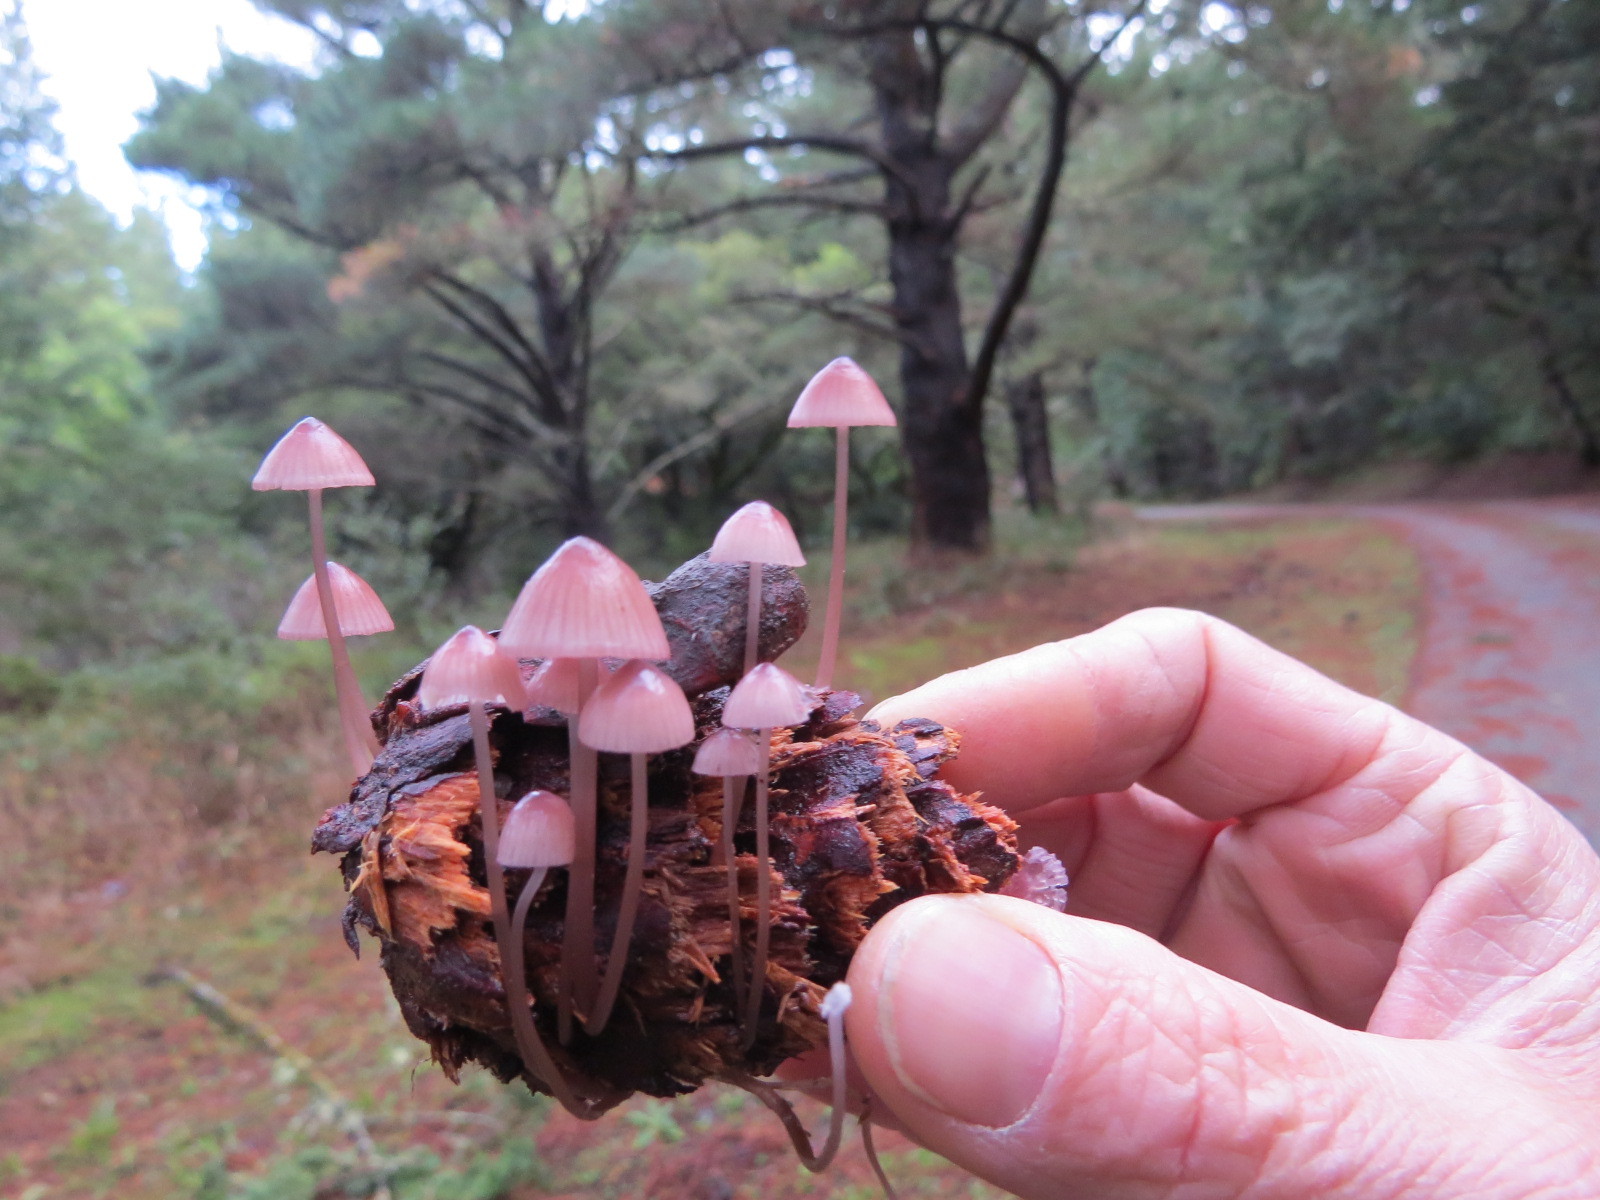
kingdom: Fungi
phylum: Basidiomycota
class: Agaricomycetes
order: Agaricales
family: Mycenaceae
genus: Mycena
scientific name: Mycena purpureofusca
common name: Purple edge bonnet
